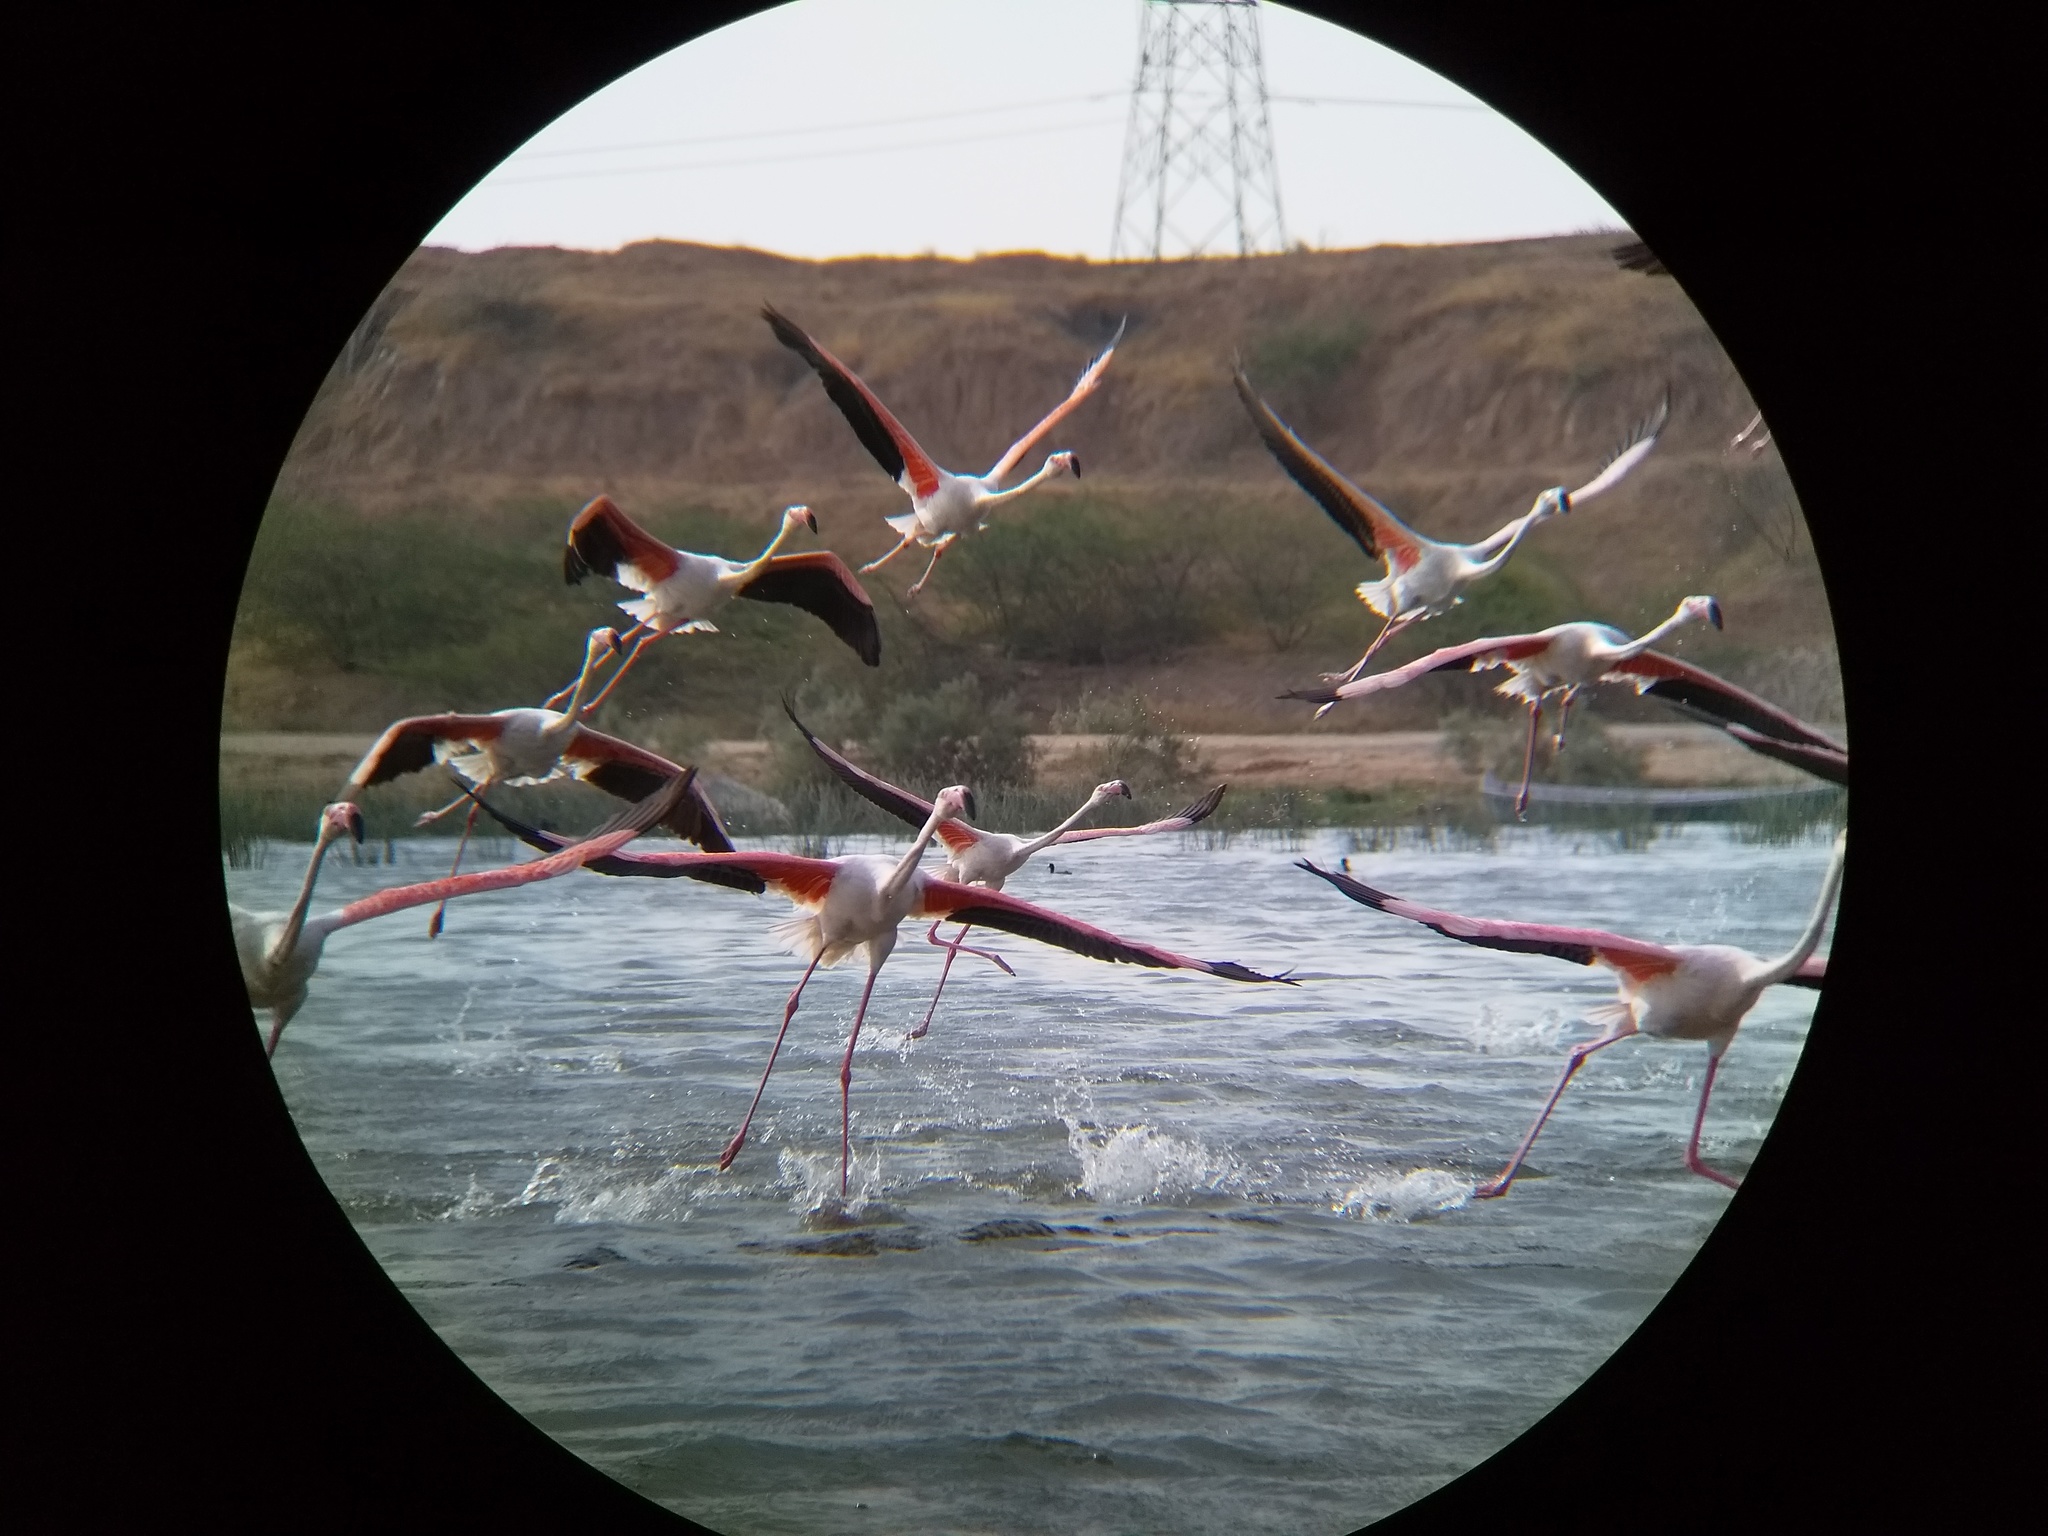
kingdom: Animalia
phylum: Chordata
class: Aves
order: Phoenicopteriformes
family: Phoenicopteridae
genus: Phoenicopterus
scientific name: Phoenicopterus roseus
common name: Greater flamingo
